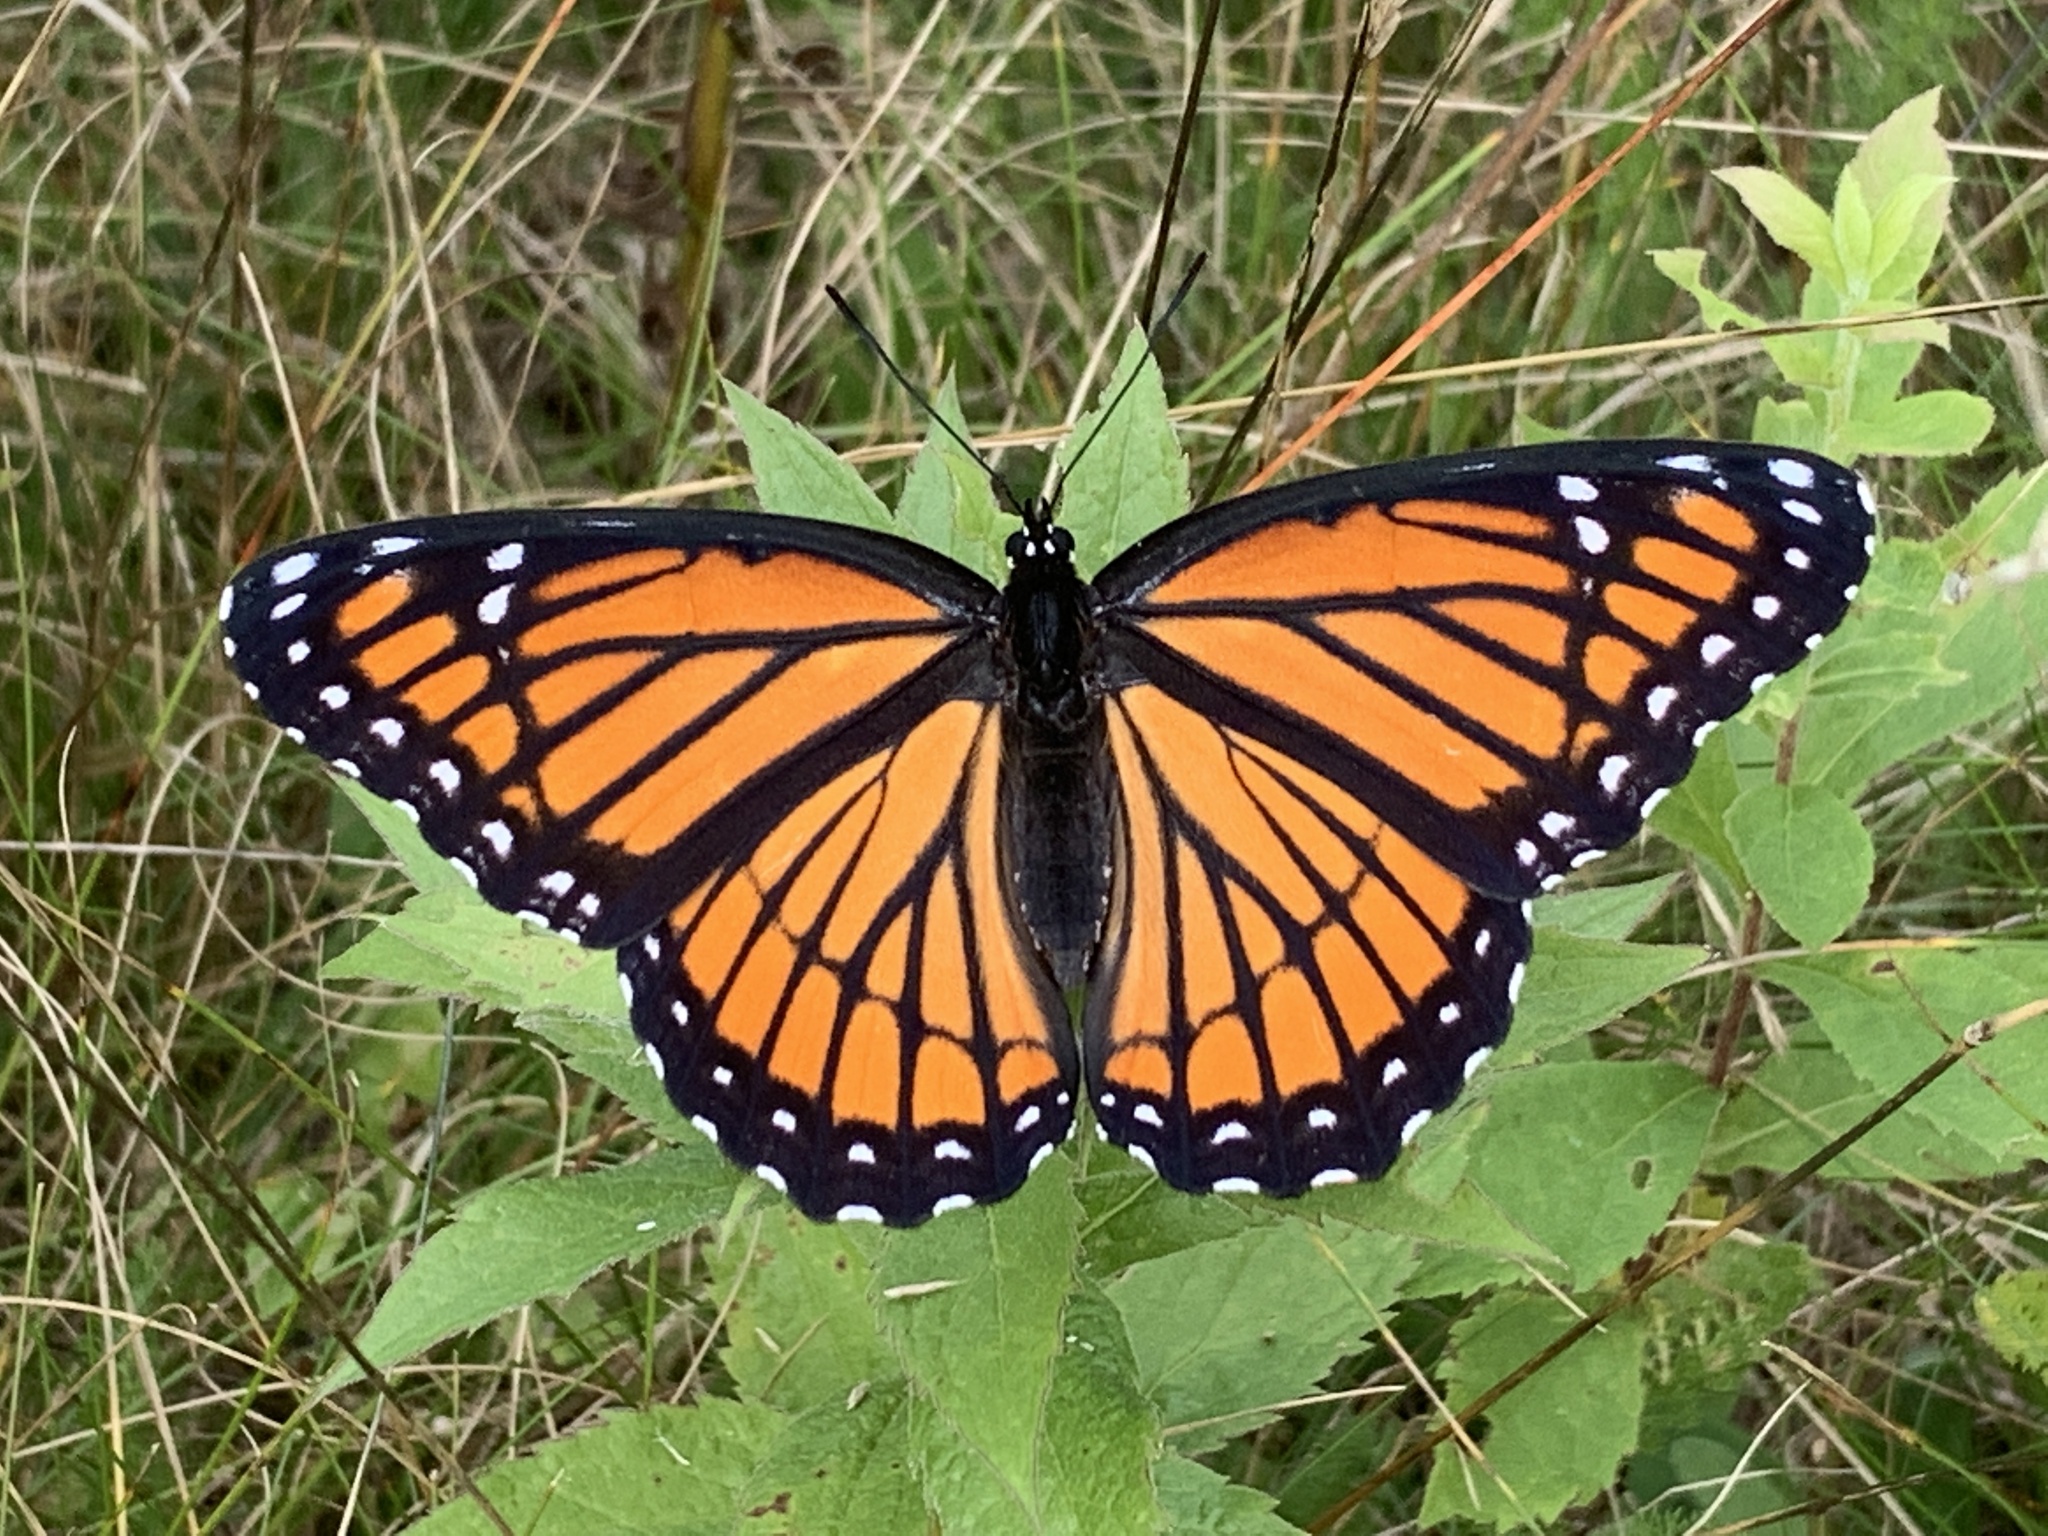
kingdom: Animalia
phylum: Arthropoda
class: Insecta
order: Lepidoptera
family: Nymphalidae
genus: Limenitis
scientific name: Limenitis archippus
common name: Viceroy
